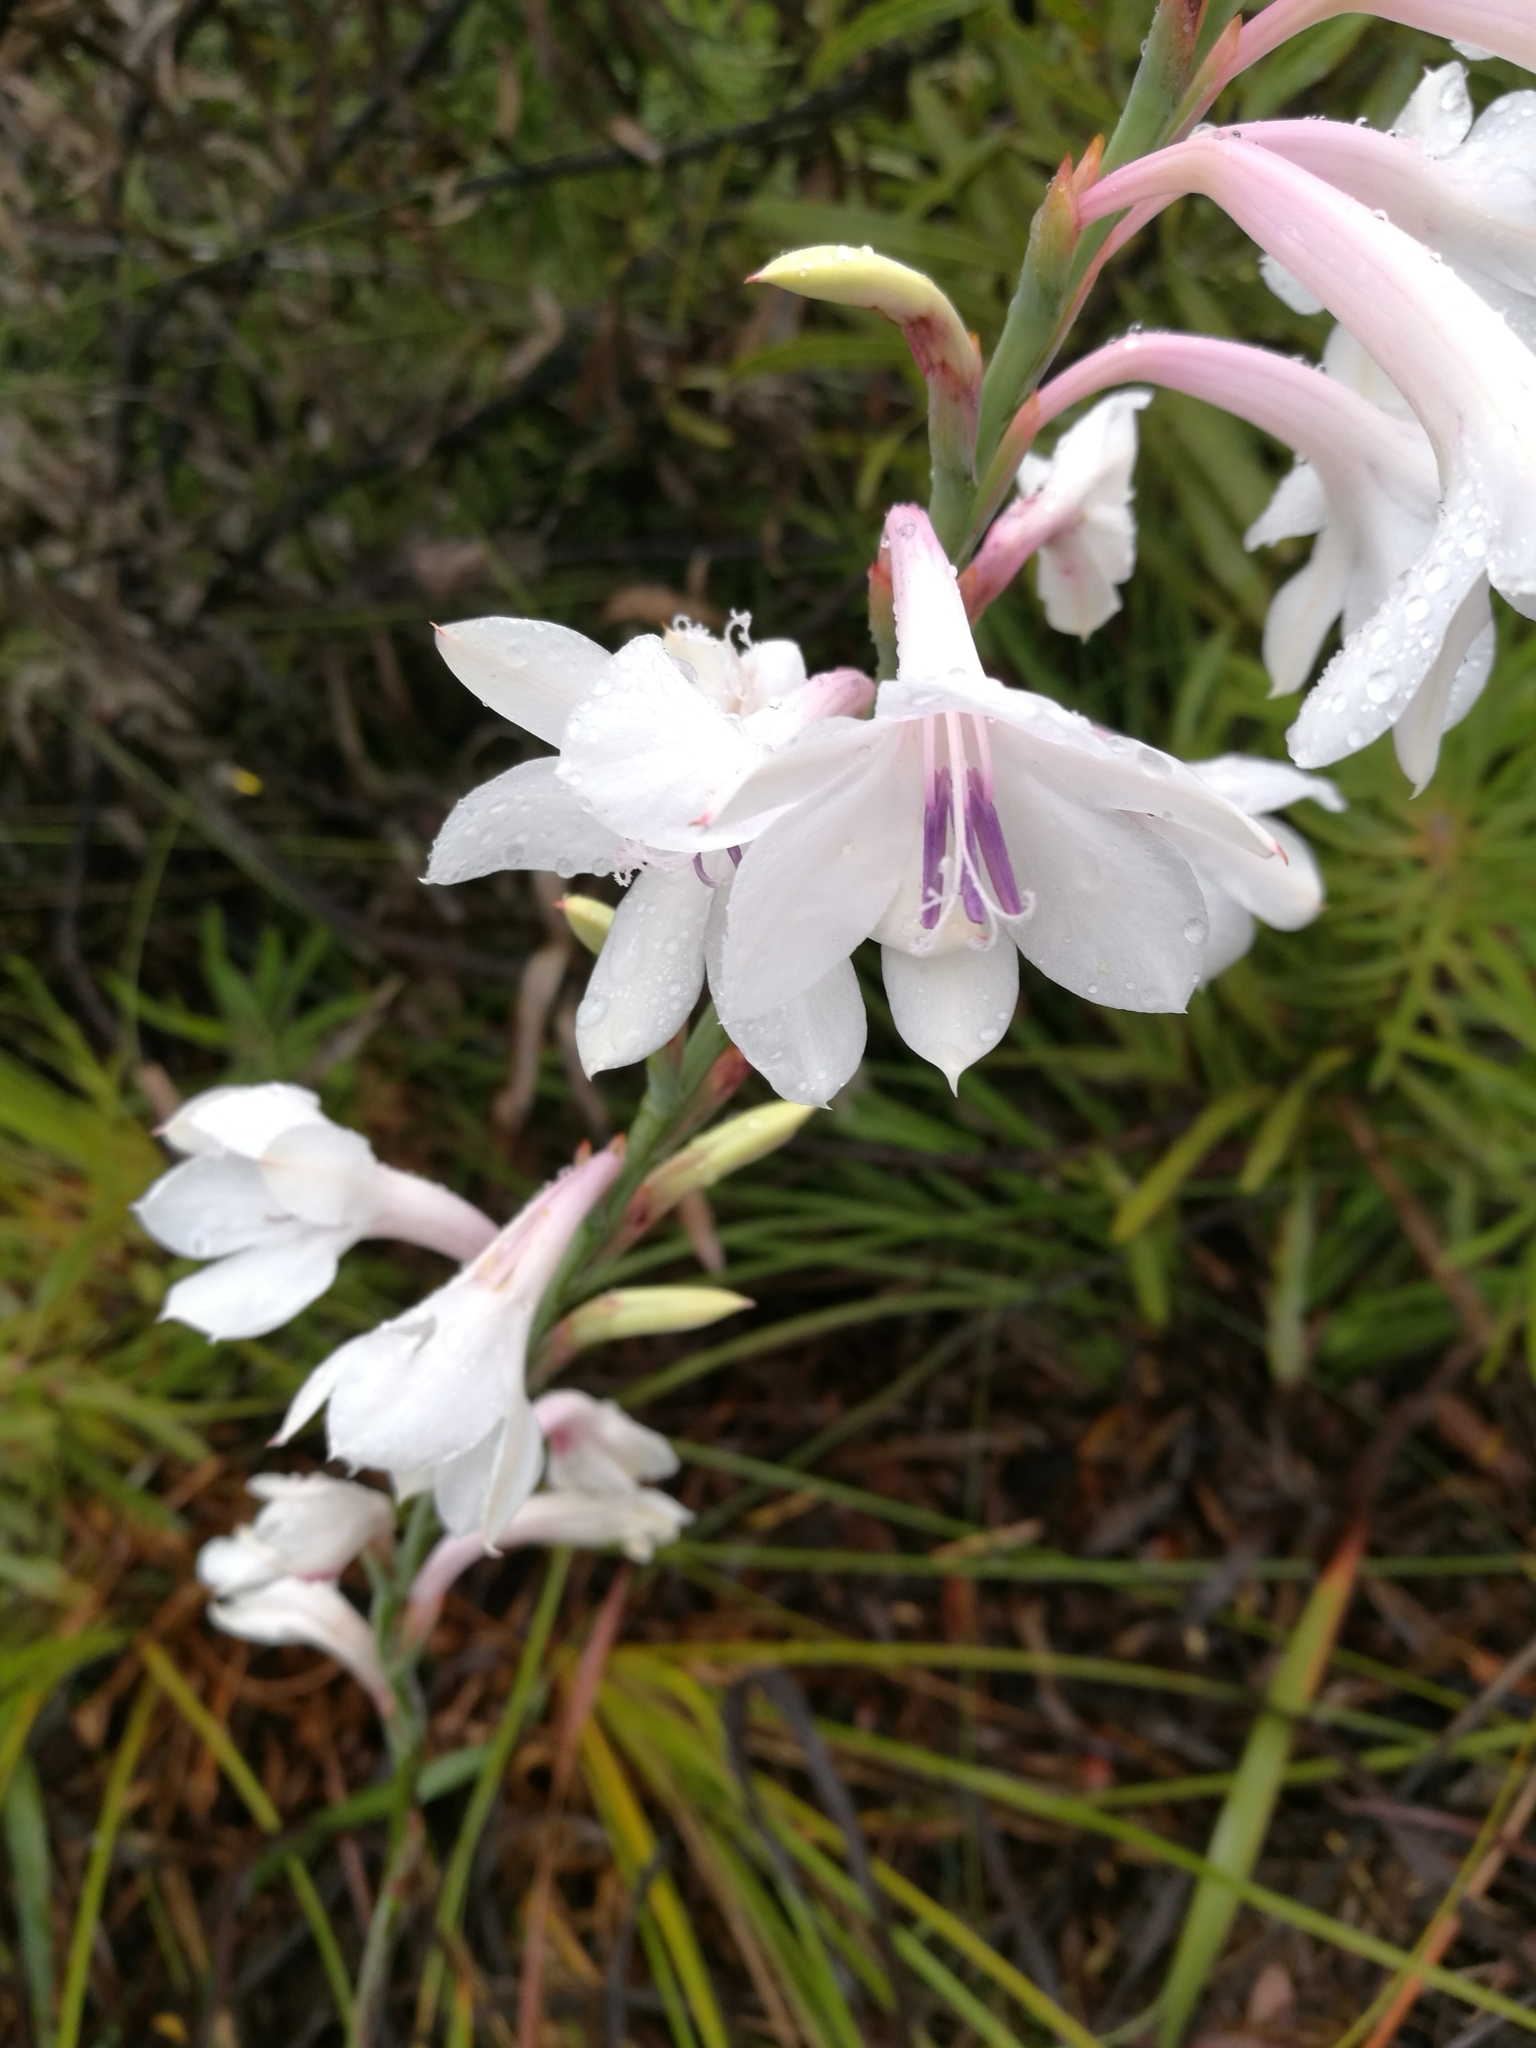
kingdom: Plantae
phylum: Tracheophyta
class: Liliopsida
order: Asparagales
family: Iridaceae
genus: Watsonia
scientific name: Watsonia knysnana
